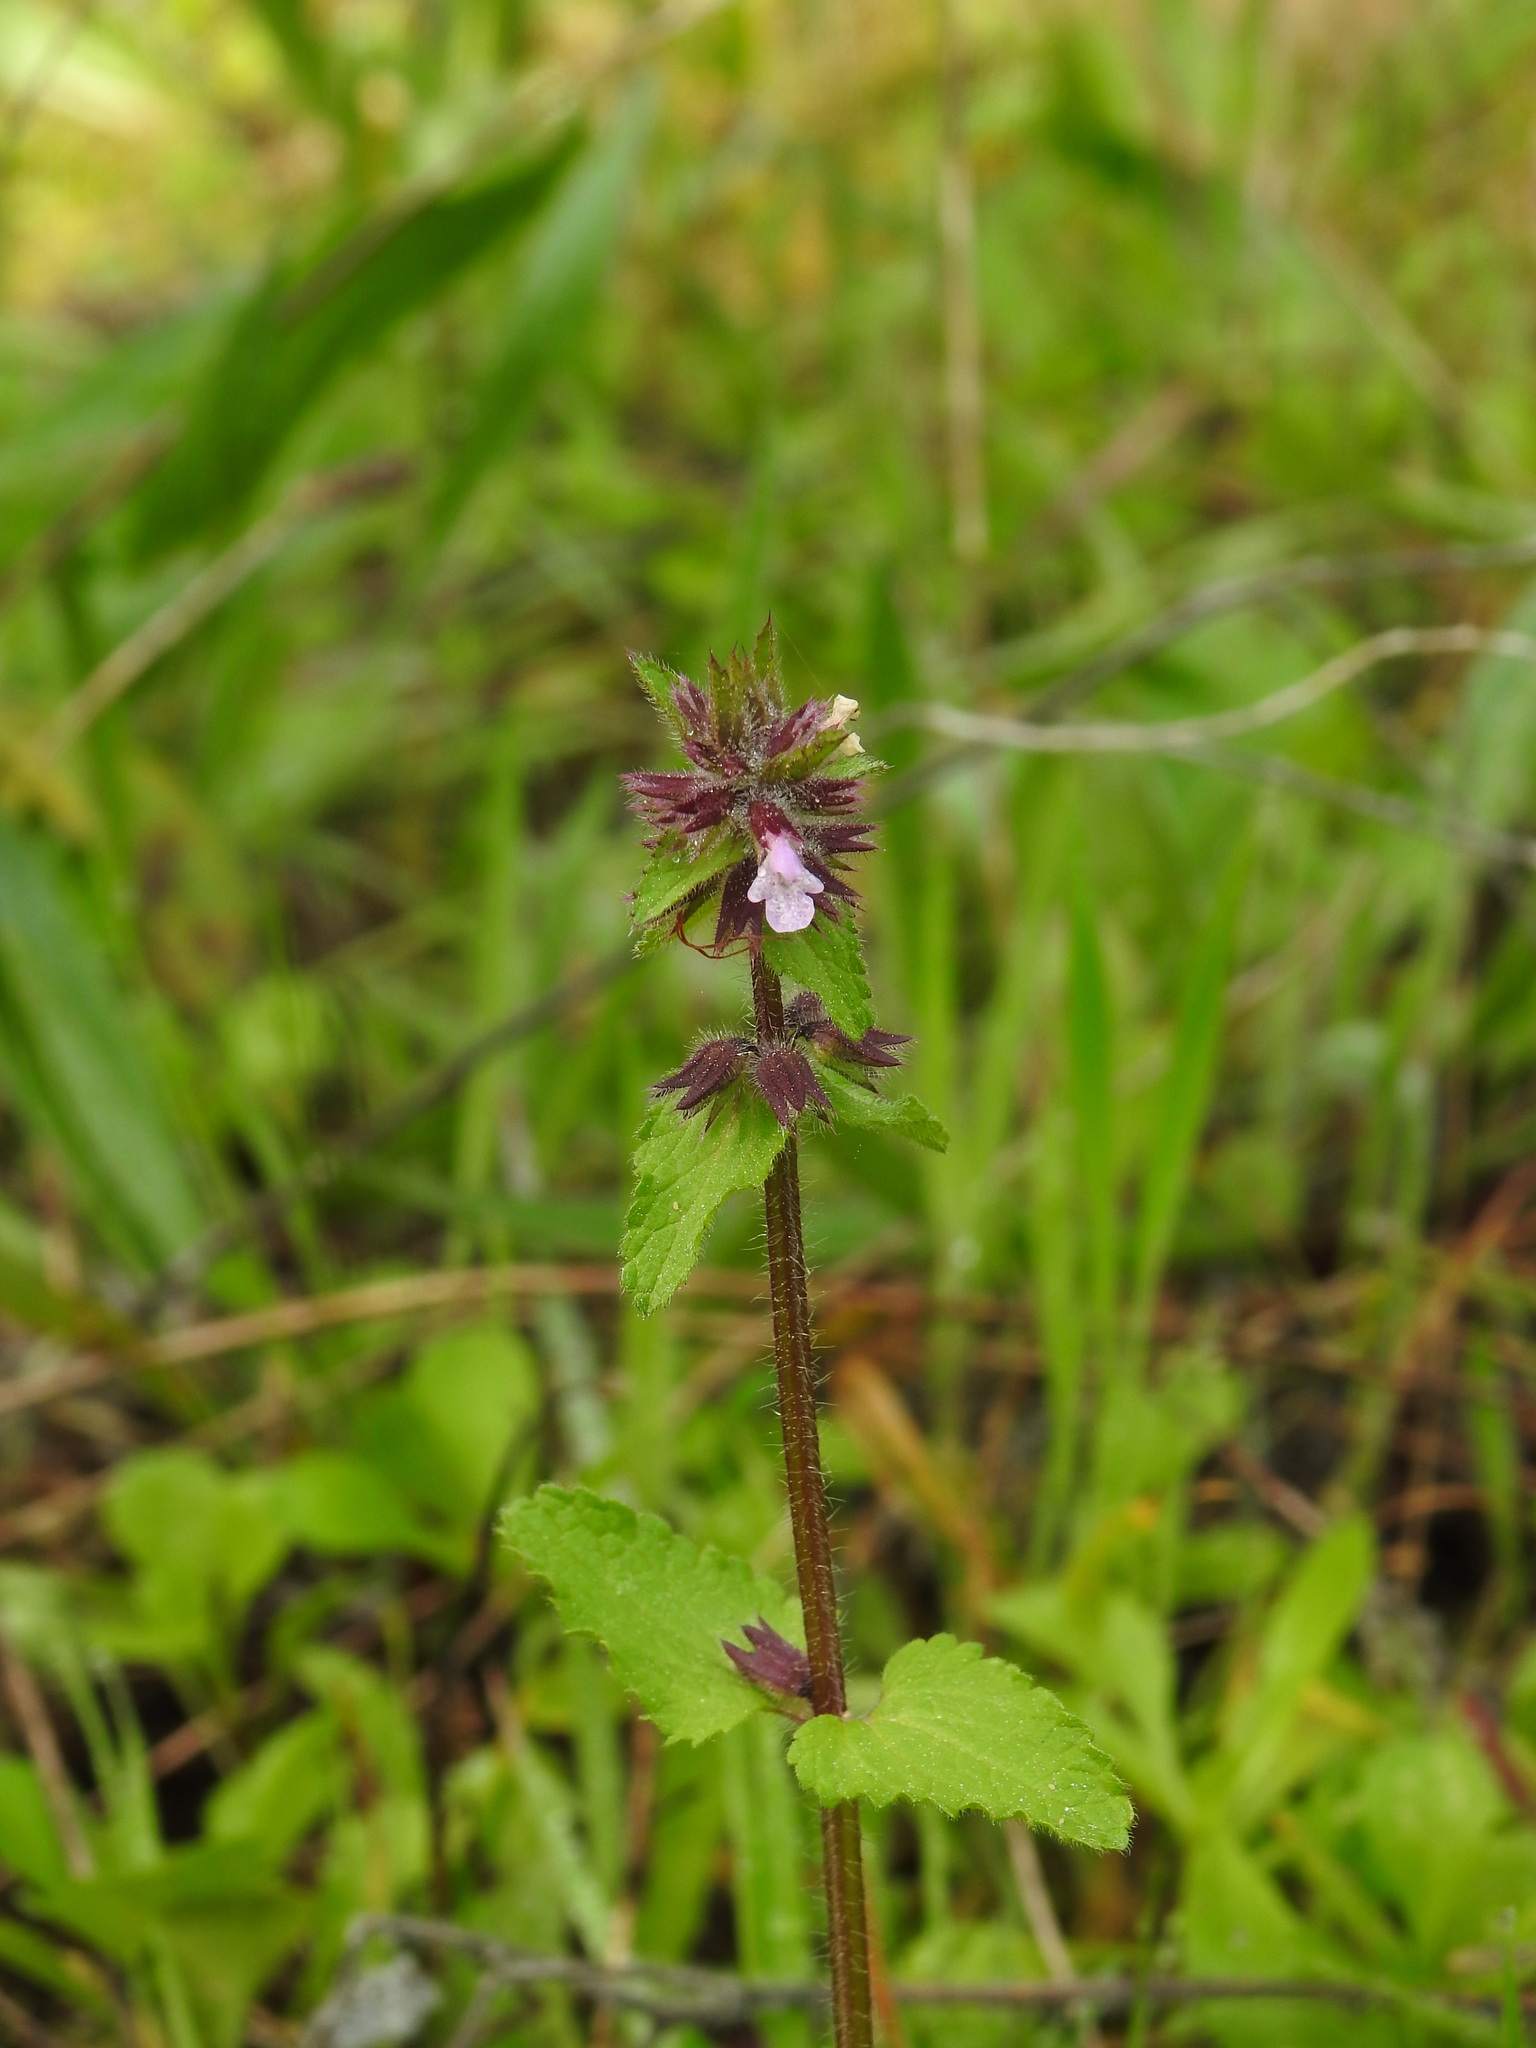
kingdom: Plantae
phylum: Tracheophyta
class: Magnoliopsida
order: Lamiales
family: Lamiaceae
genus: Stachys
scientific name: Stachys arvensis
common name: Field woundwort
